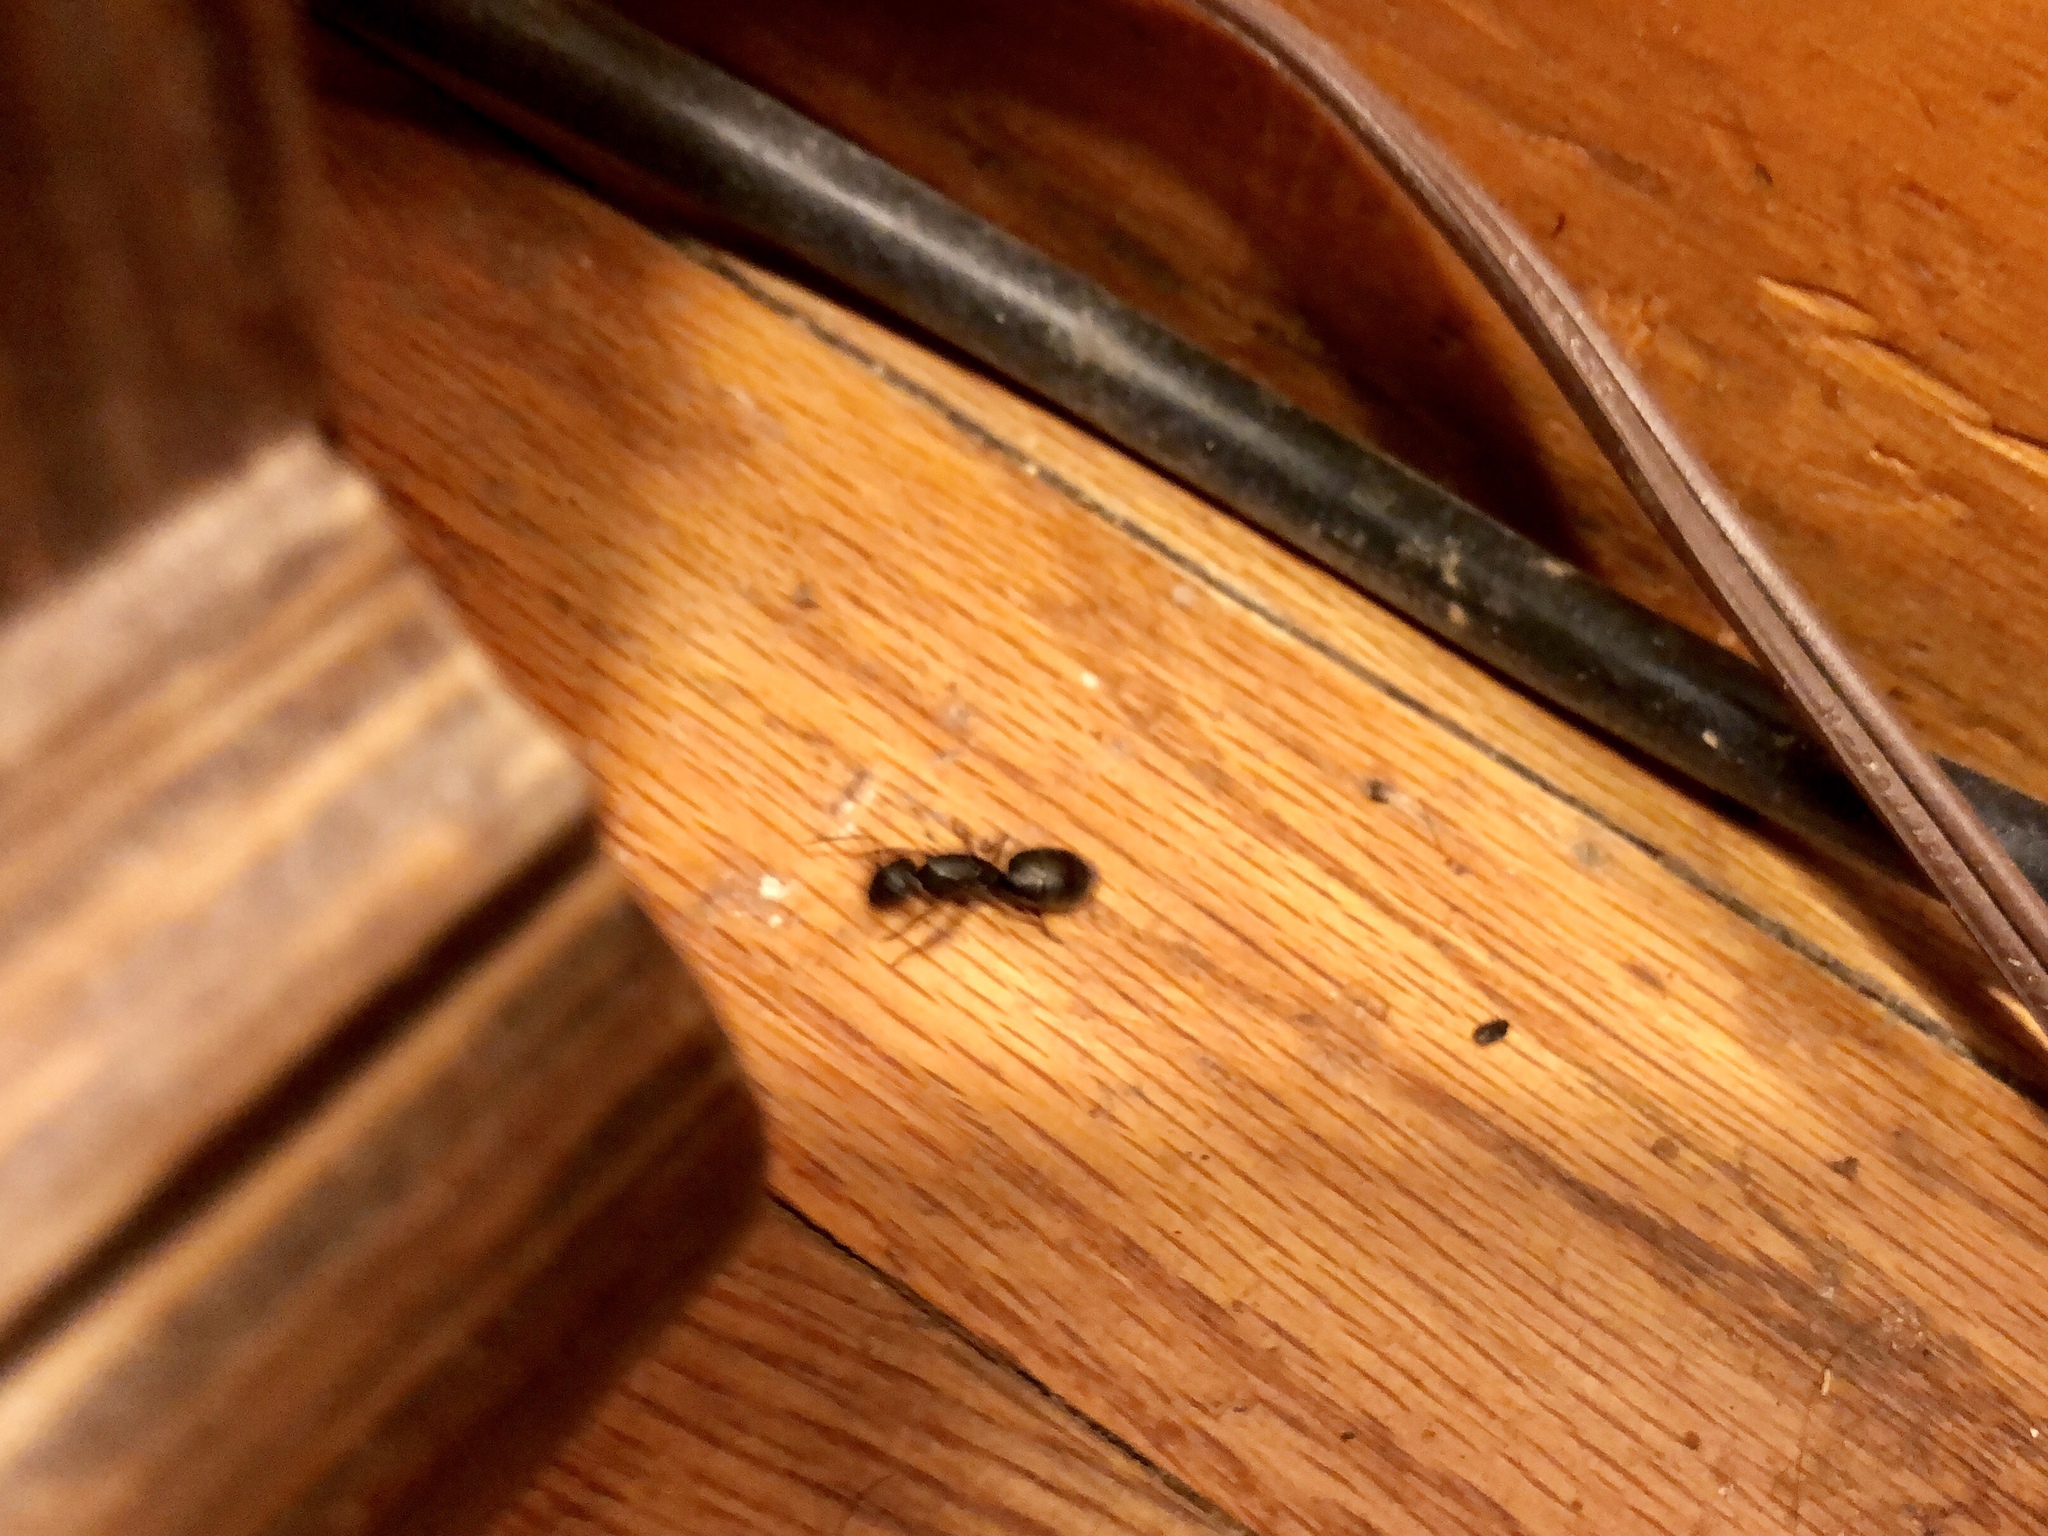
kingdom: Animalia
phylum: Arthropoda
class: Insecta
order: Hymenoptera
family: Formicidae
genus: Camponotus
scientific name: Camponotus modoc
